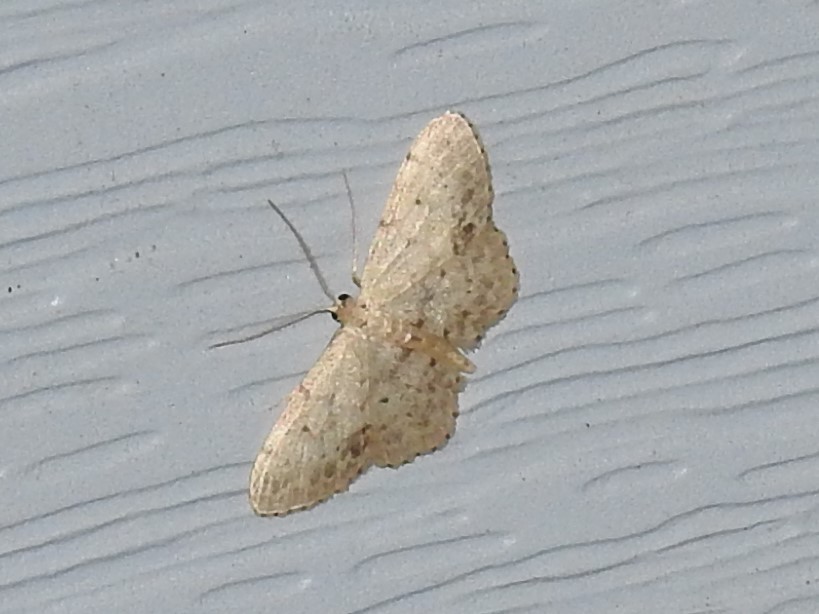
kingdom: Animalia
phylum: Arthropoda
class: Insecta
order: Lepidoptera
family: Geometridae
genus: Idaea
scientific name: Idaea dimidiata
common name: Single-dotted wave
